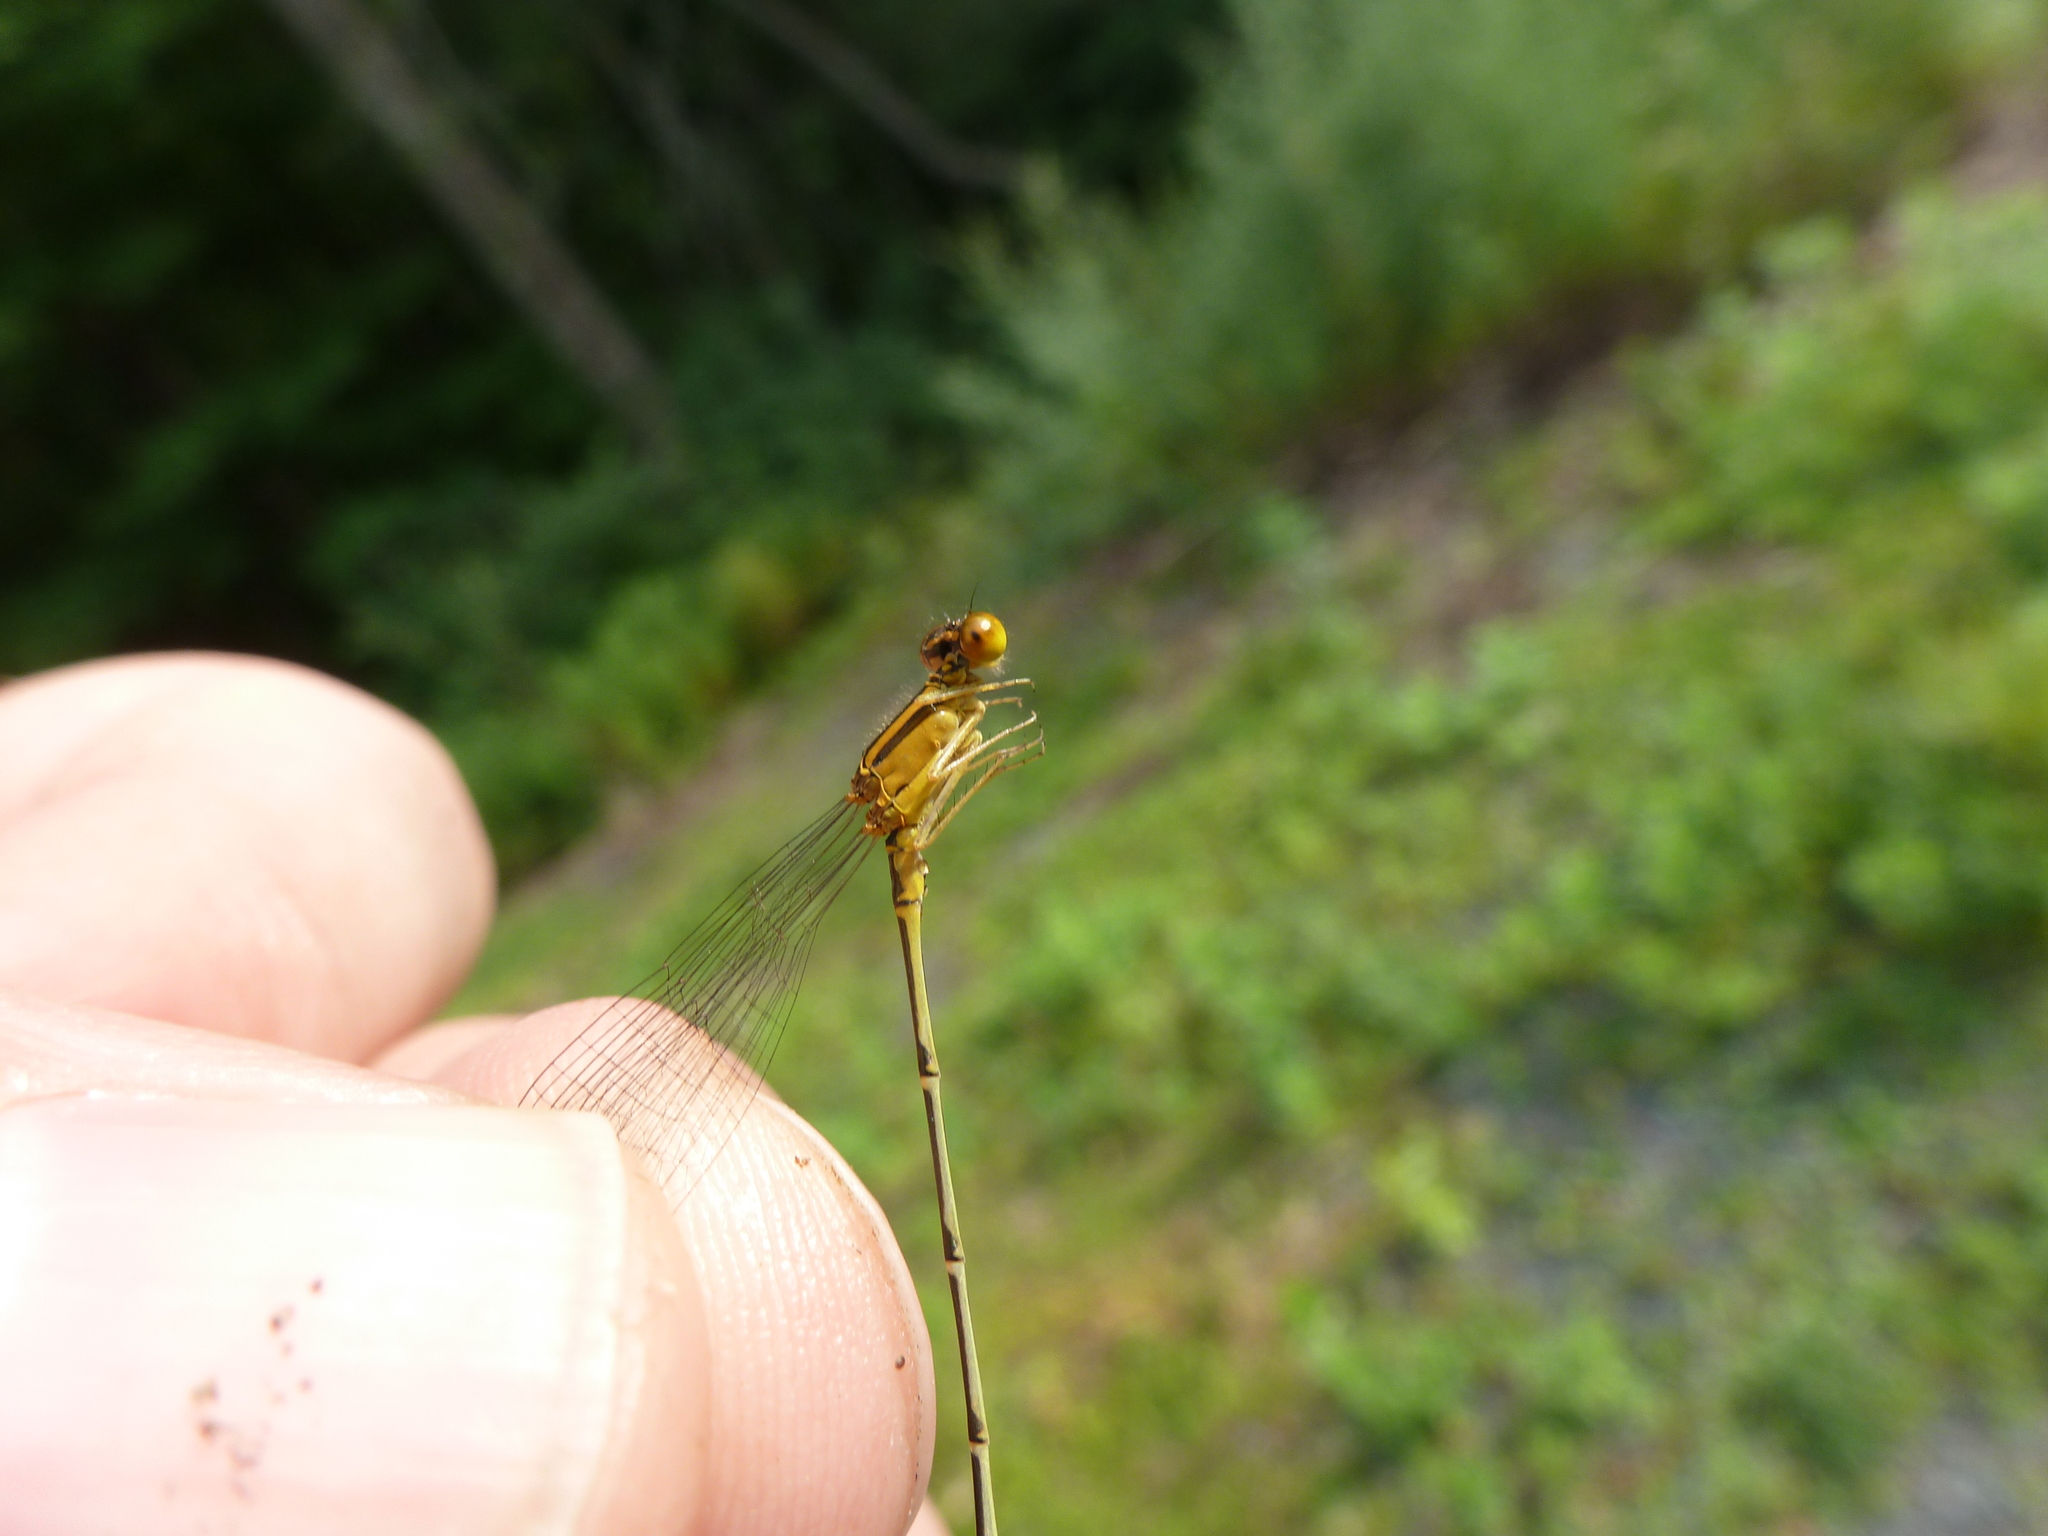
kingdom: Animalia
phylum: Arthropoda
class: Insecta
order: Odonata
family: Coenagrionidae
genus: Enallagma
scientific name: Enallagma signatum
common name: Orange bluet
